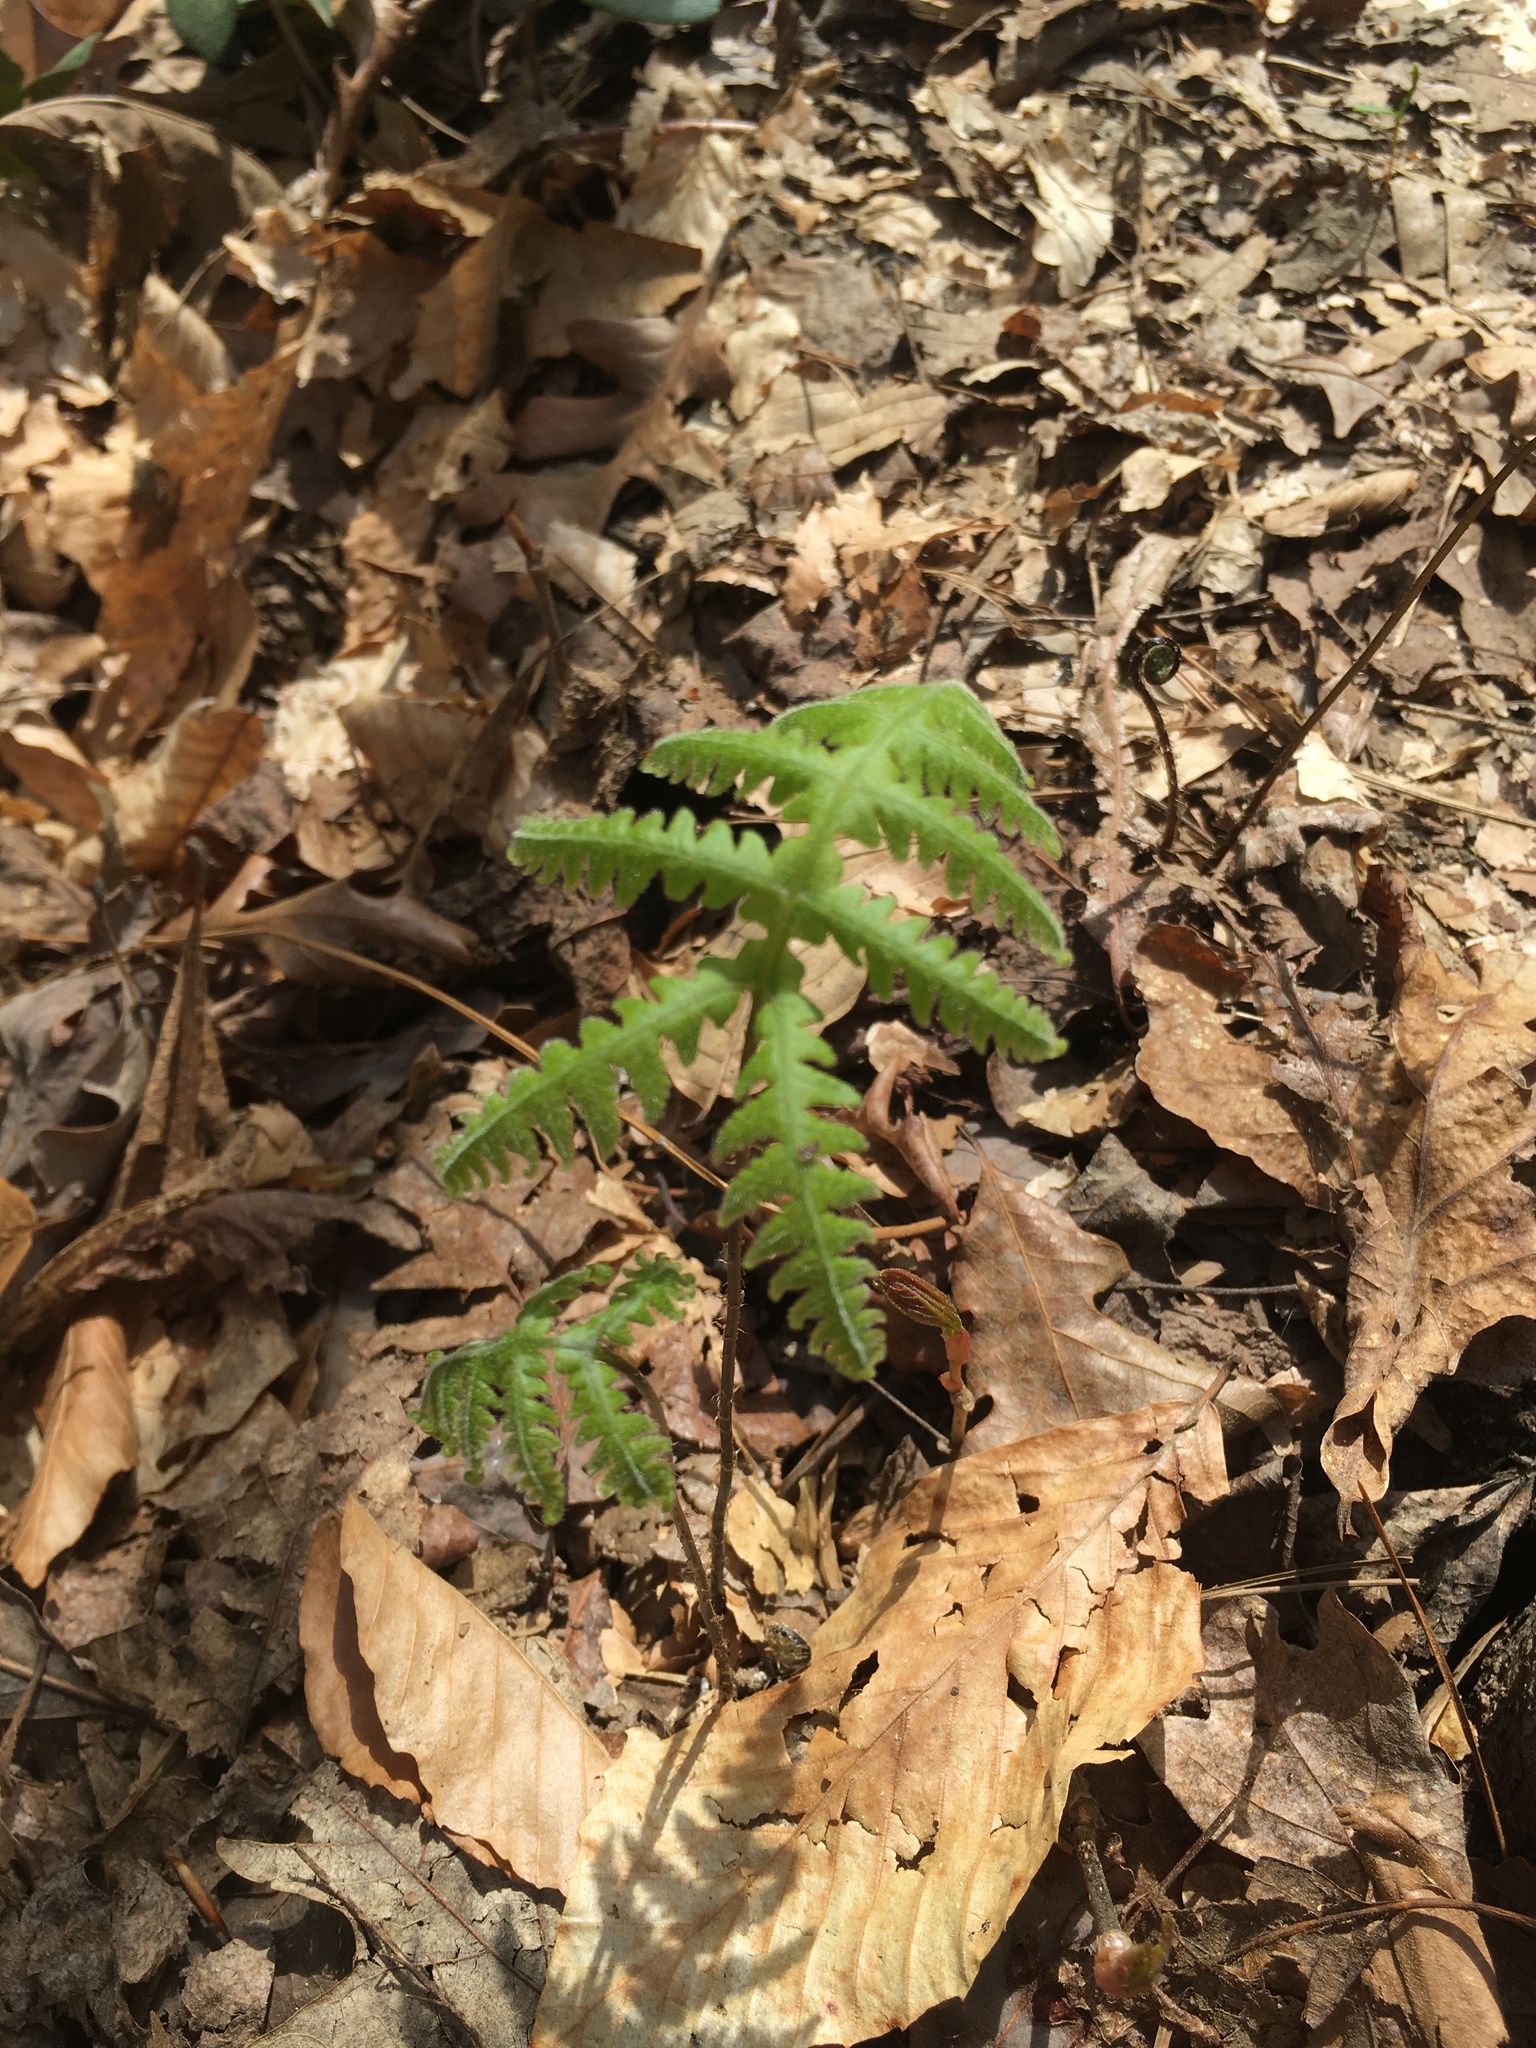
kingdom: Plantae
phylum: Tracheophyta
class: Polypodiopsida
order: Polypodiales
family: Thelypteridaceae
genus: Phegopteris
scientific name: Phegopteris hexagonoptera
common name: Broad beech fern
